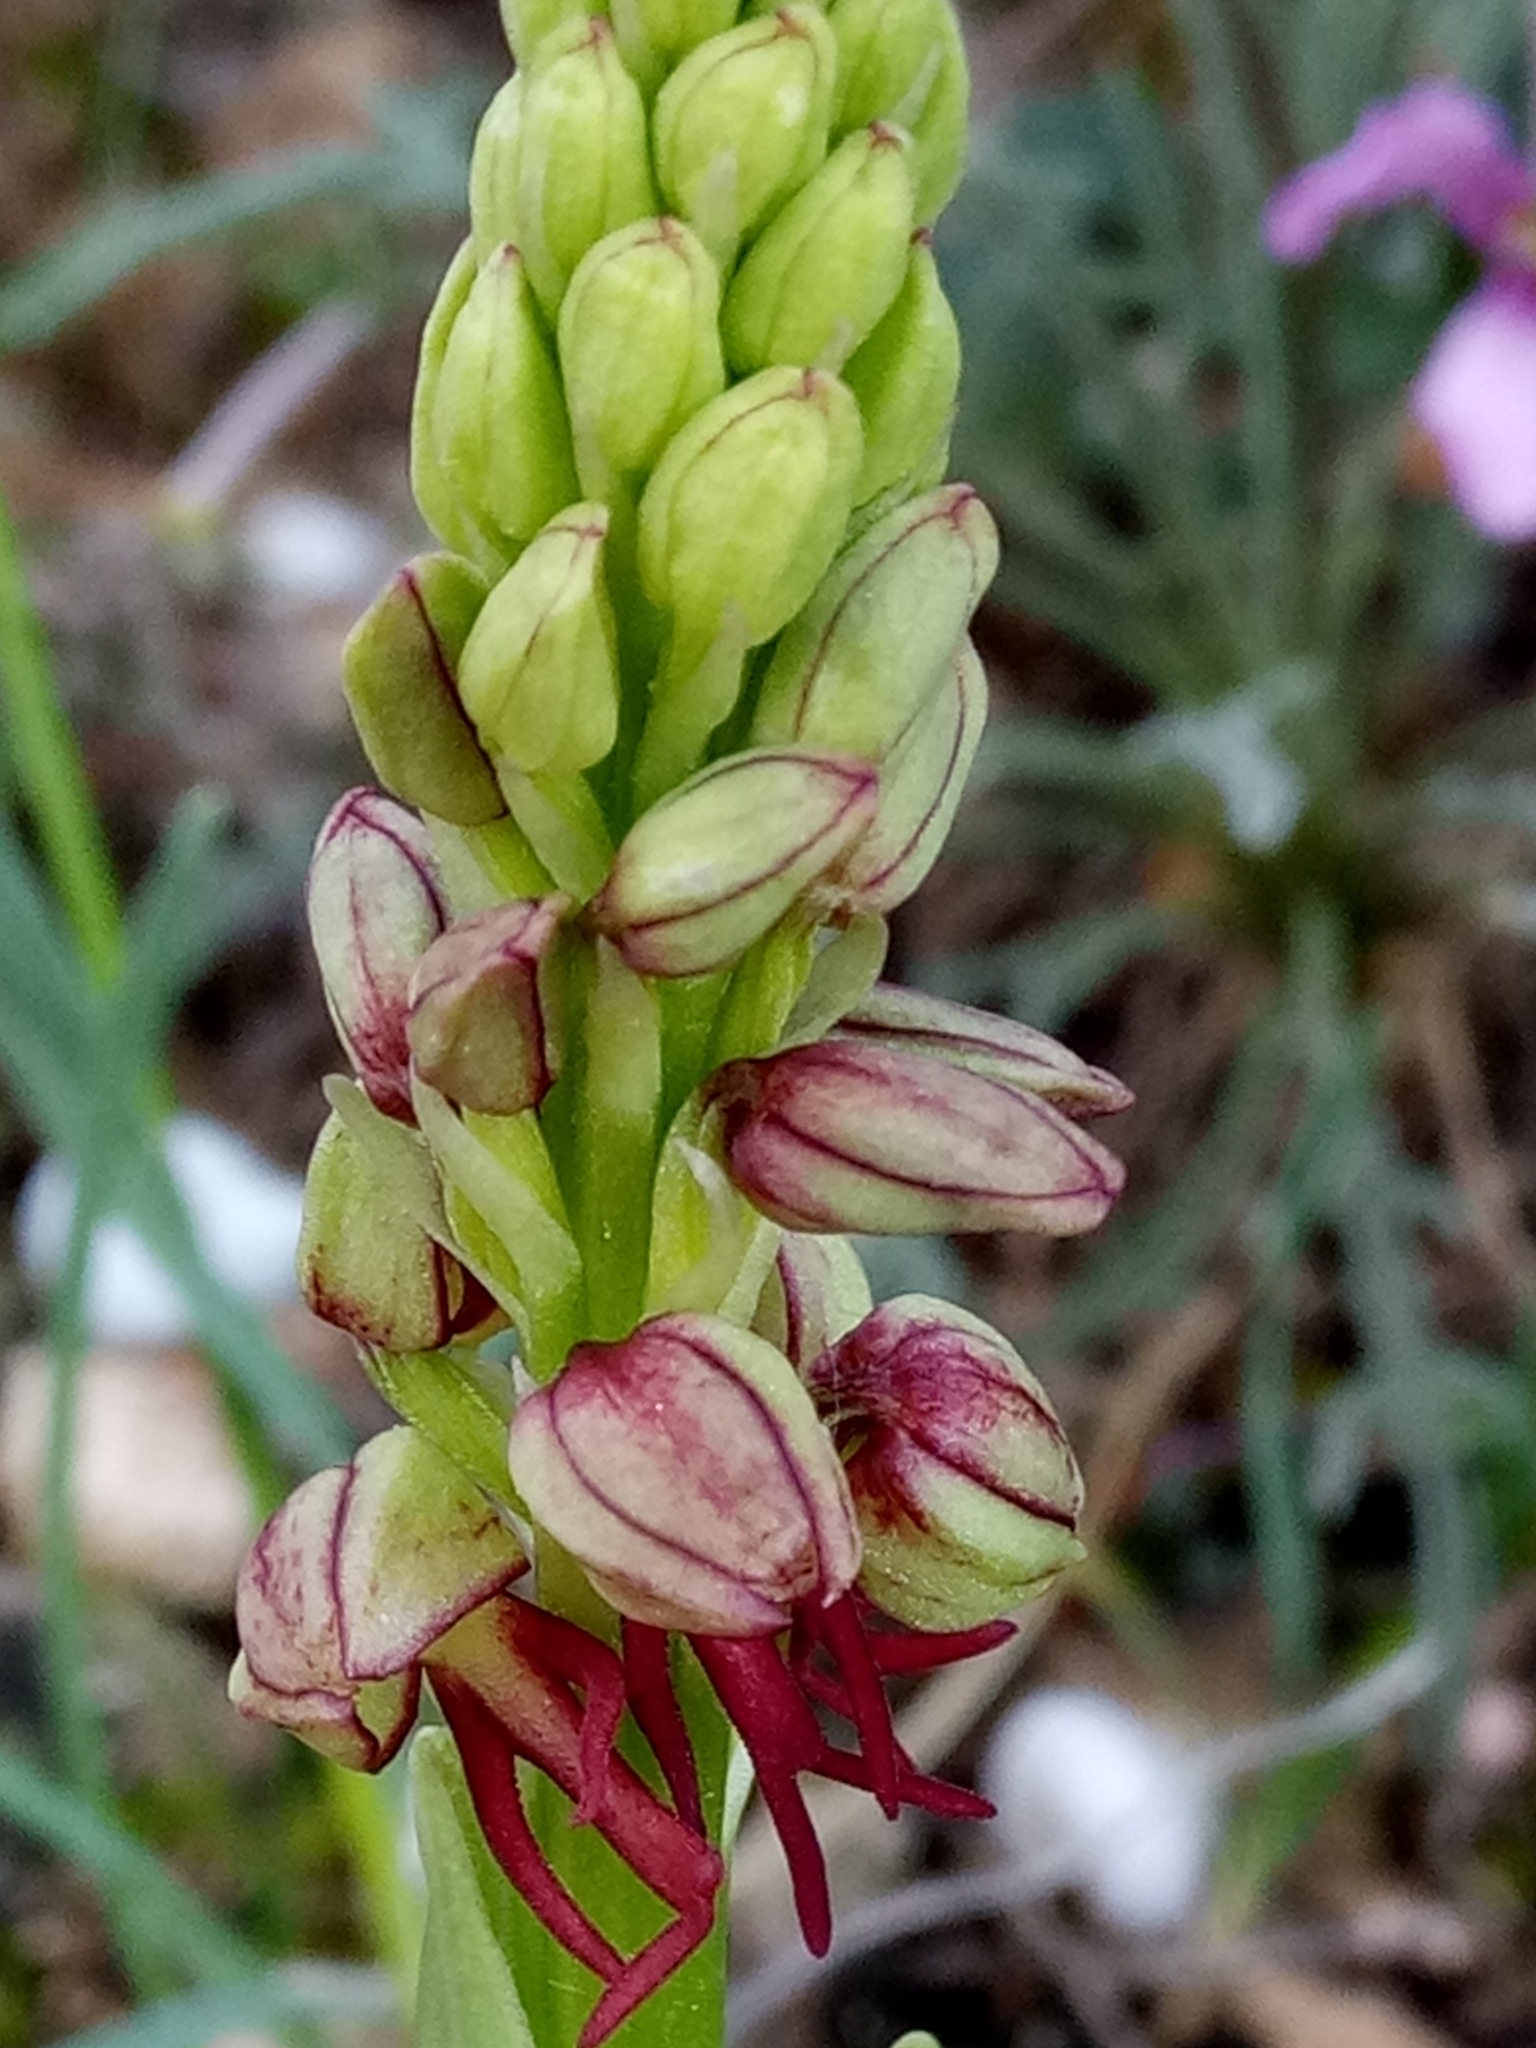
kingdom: Plantae
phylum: Tracheophyta
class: Liliopsida
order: Asparagales
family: Orchidaceae
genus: Orchis
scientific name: Orchis anthropophora
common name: Man orchid
